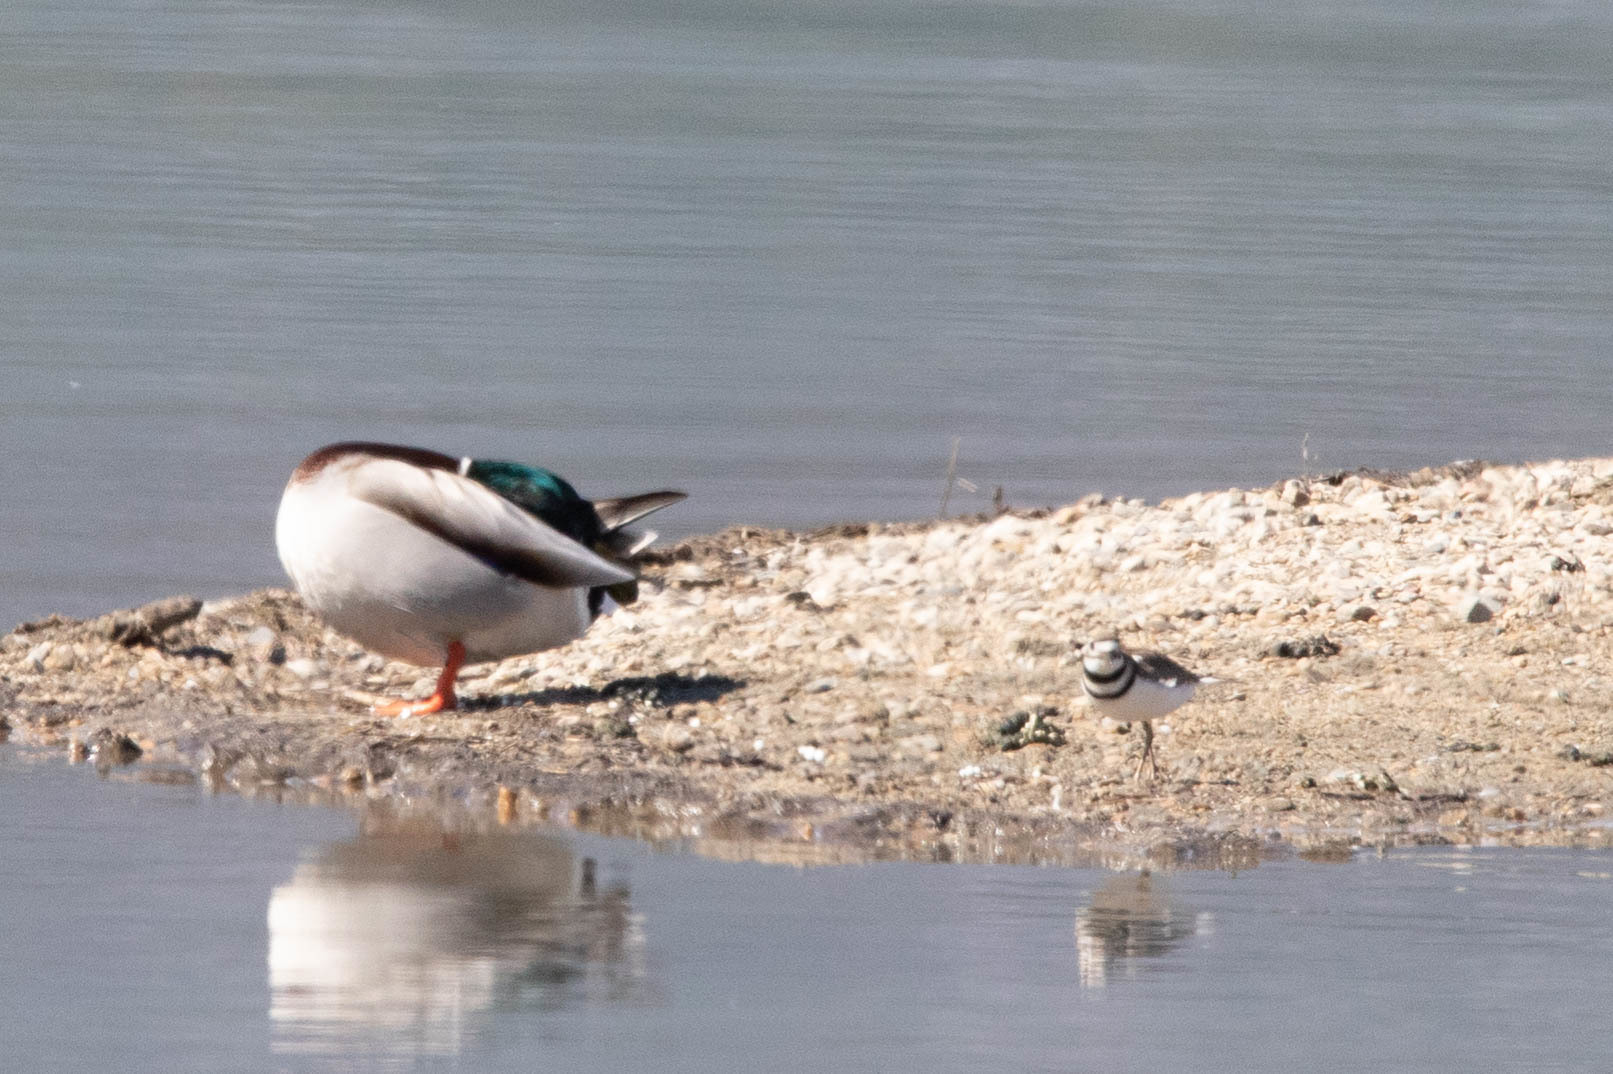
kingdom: Animalia
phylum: Chordata
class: Aves
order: Anseriformes
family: Anatidae
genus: Anas
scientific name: Anas platyrhynchos
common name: Mallard
